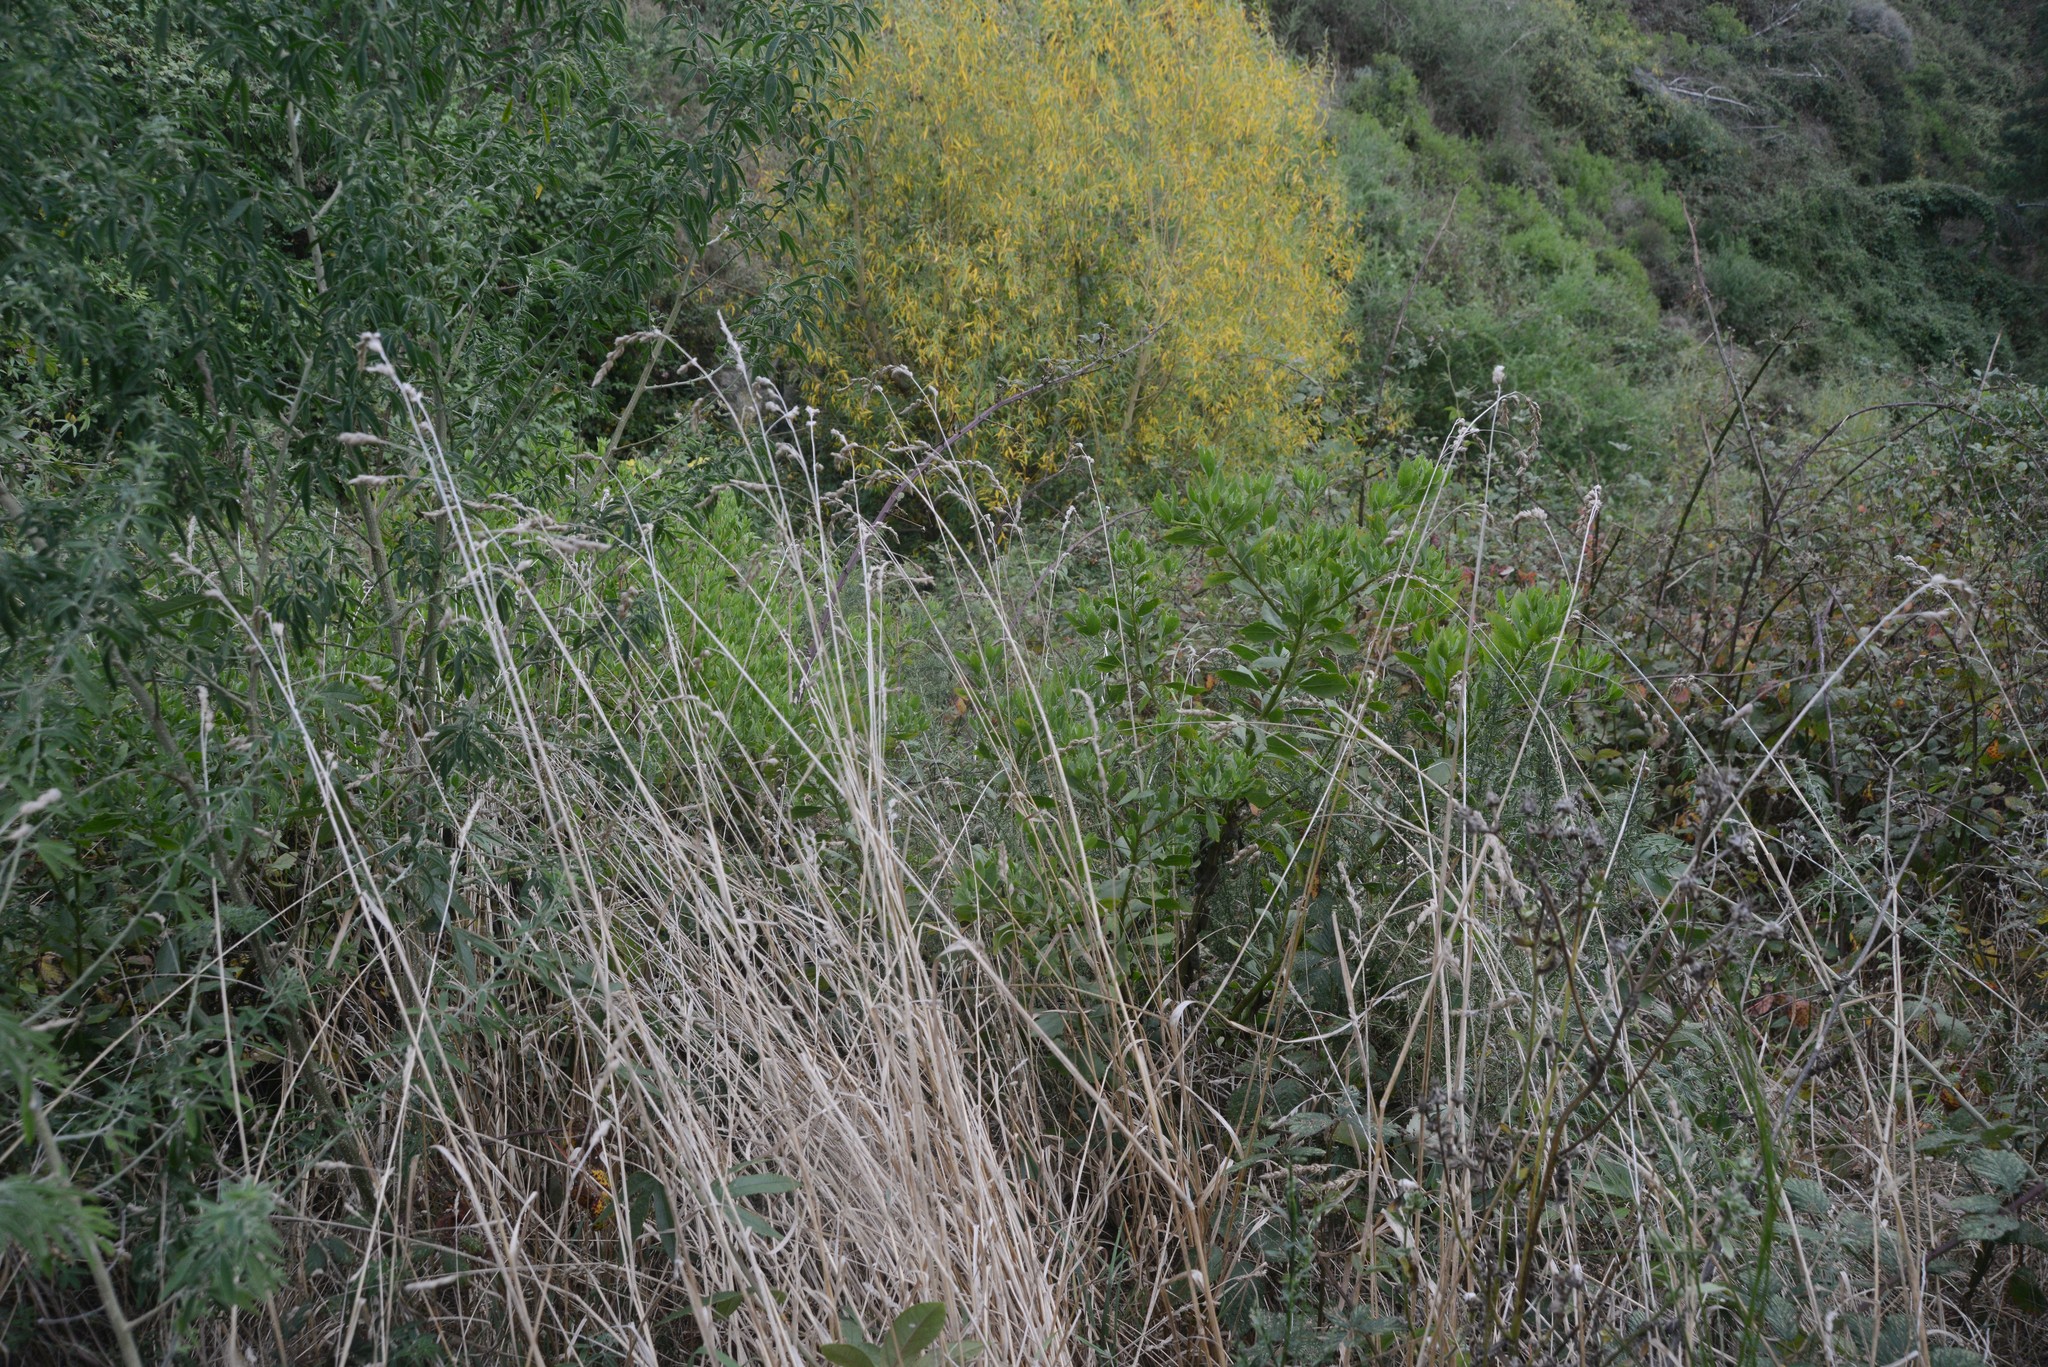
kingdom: Plantae
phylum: Tracheophyta
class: Magnoliopsida
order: Asterales
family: Asteraceae
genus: Osteospermum
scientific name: Osteospermum moniliferum
